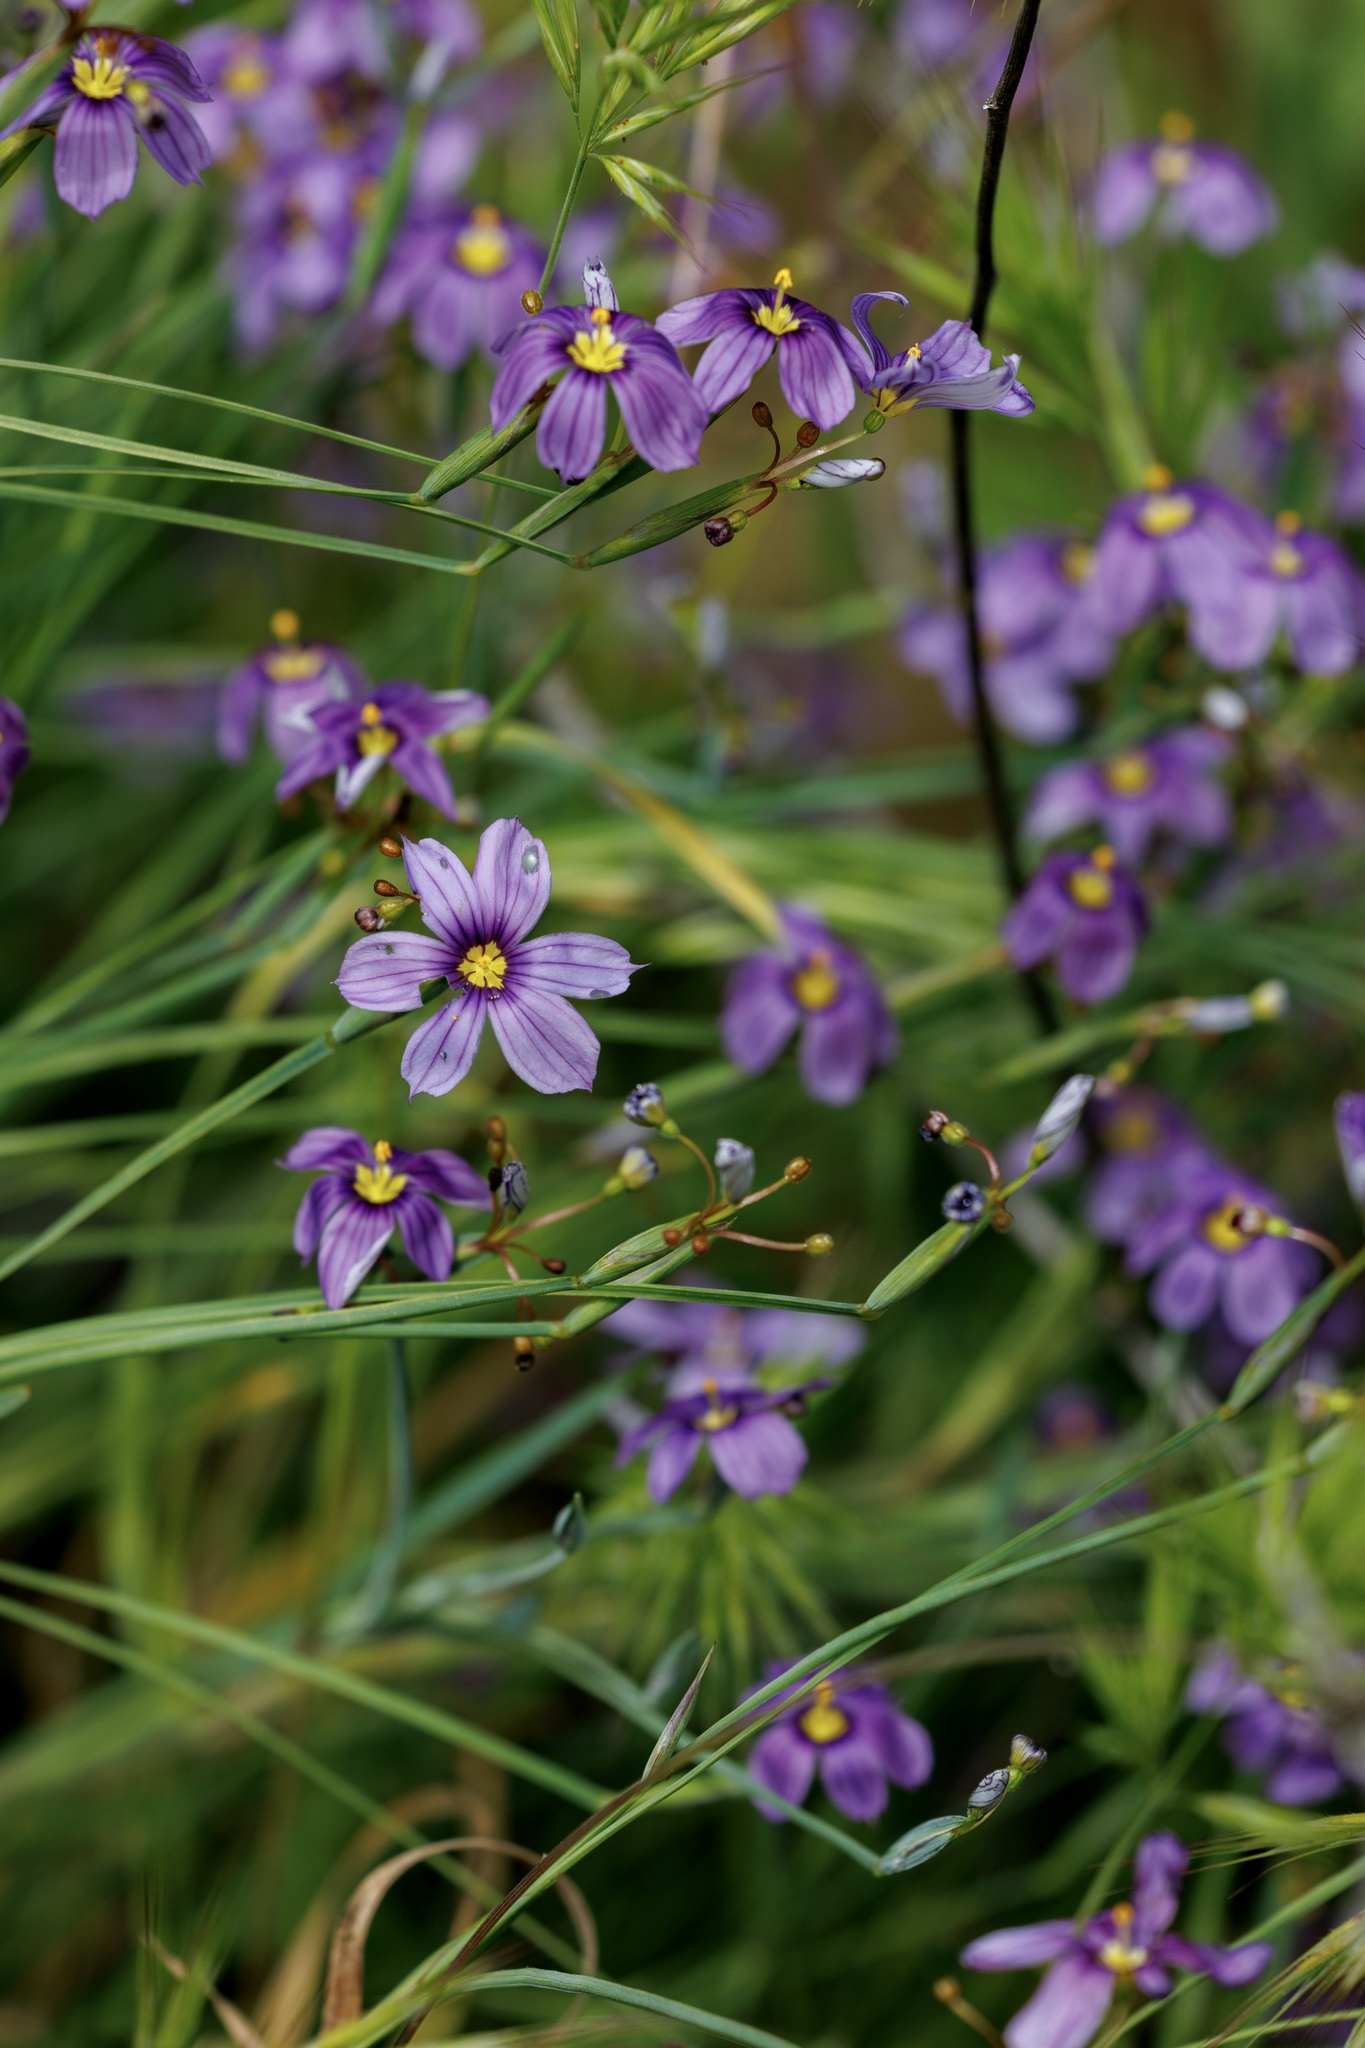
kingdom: Plantae
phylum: Tracheophyta
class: Liliopsida
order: Asparagales
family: Iridaceae
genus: Sisyrinchium
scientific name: Sisyrinchium bellum
